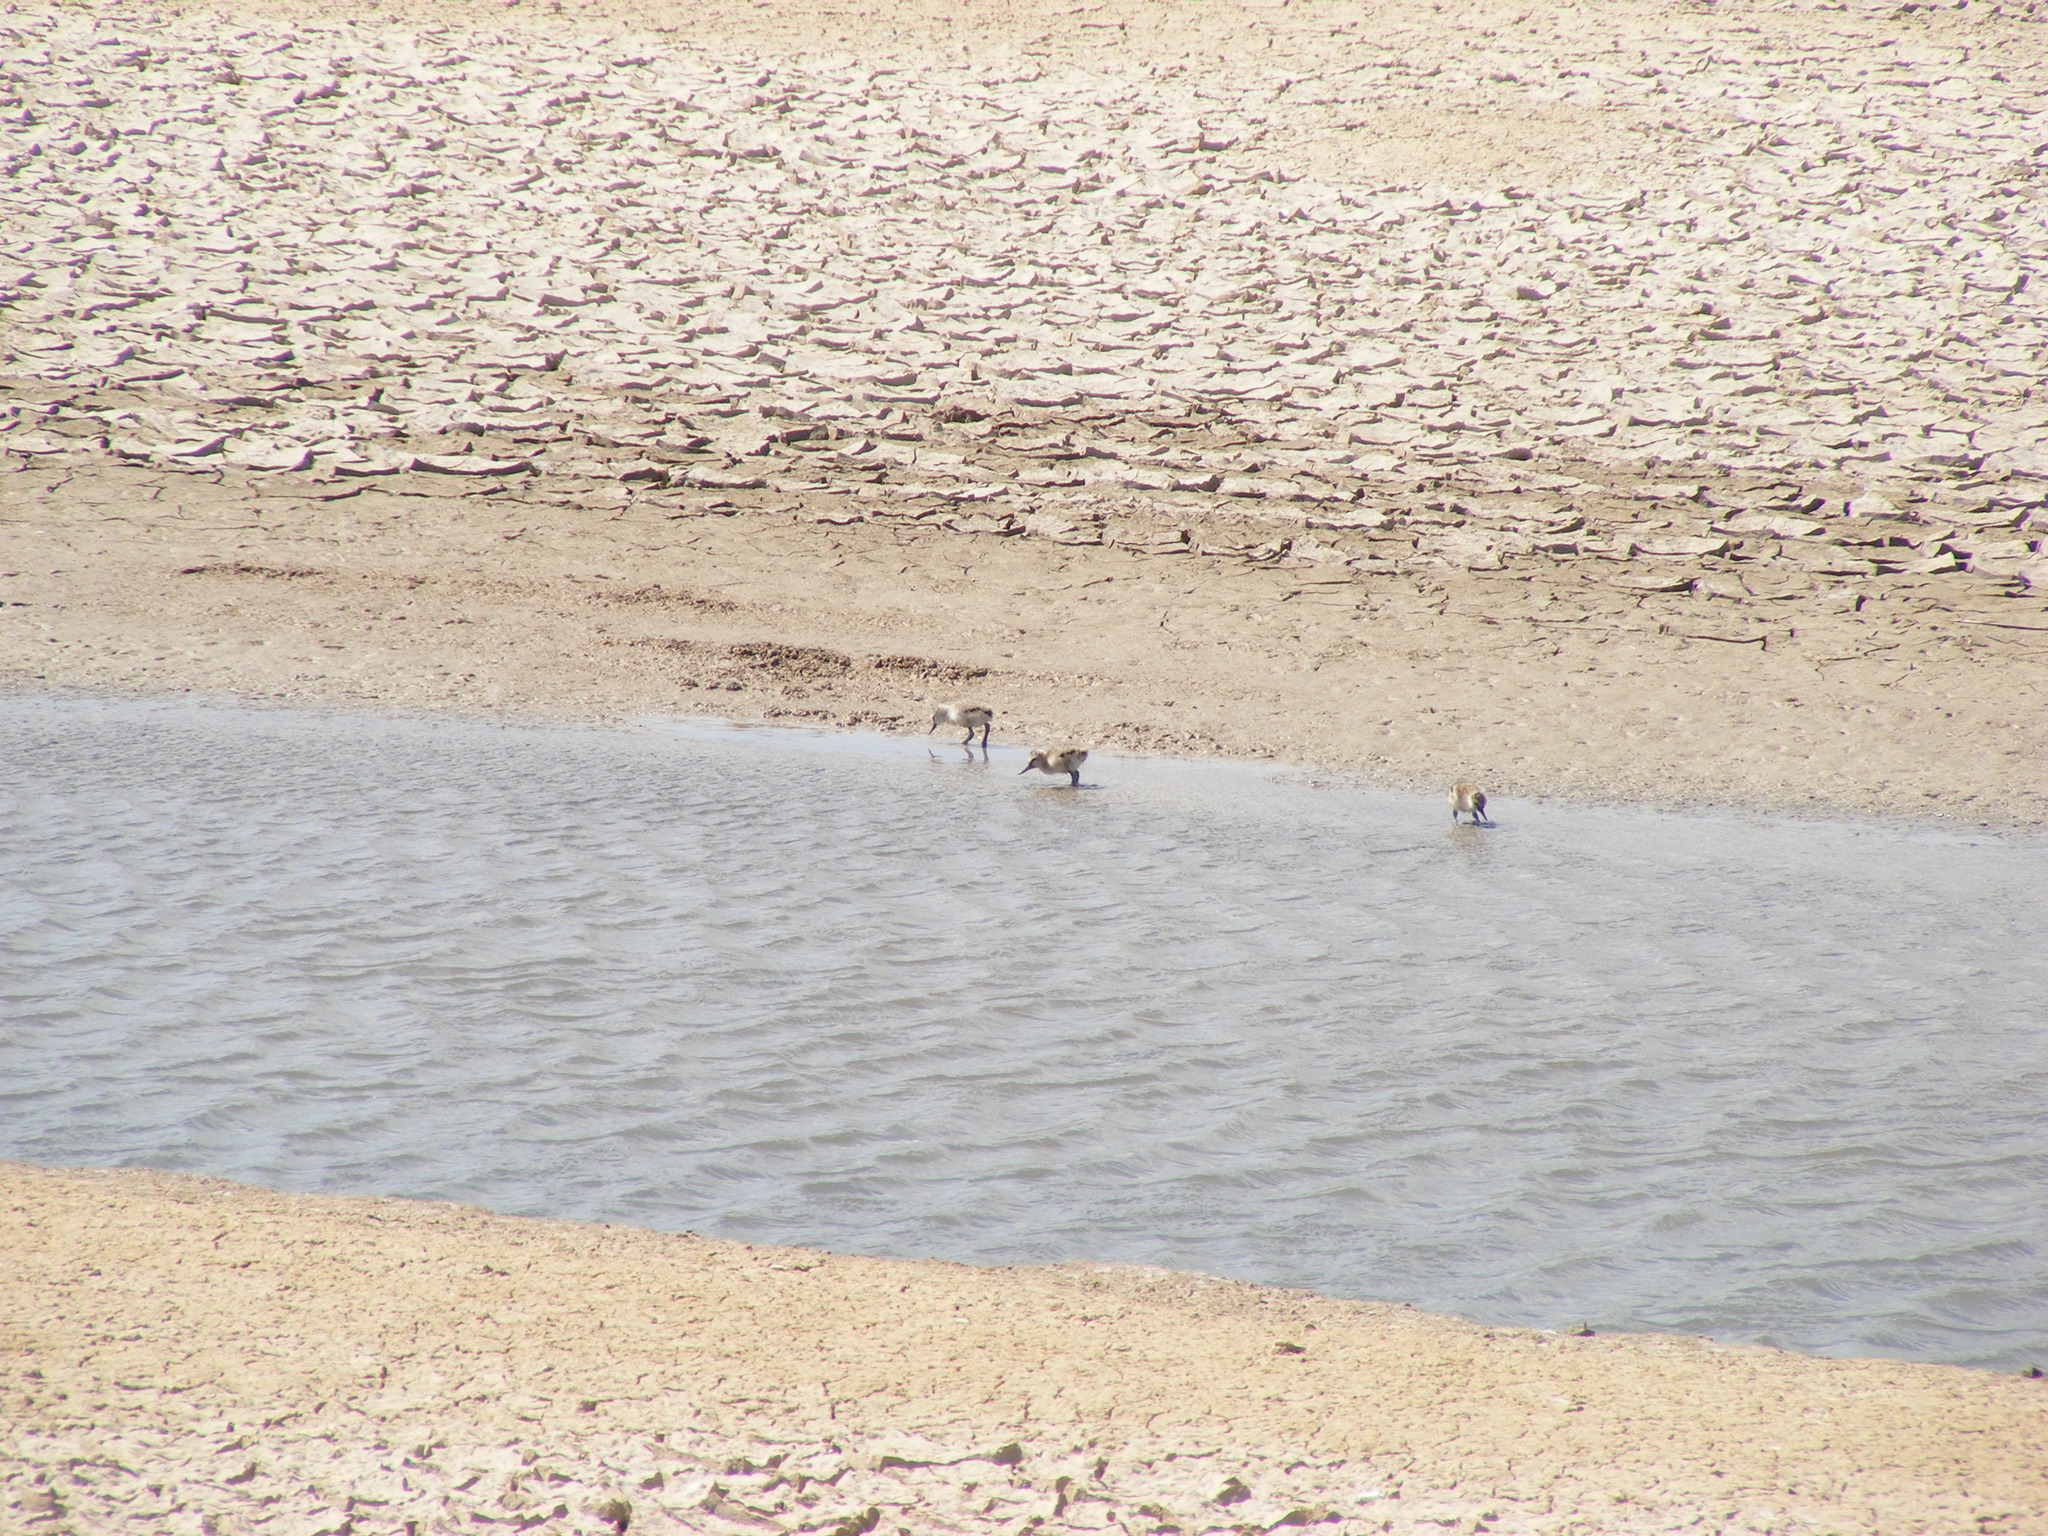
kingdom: Animalia
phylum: Chordata
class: Aves
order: Charadriiformes
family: Recurvirostridae
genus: Recurvirostra
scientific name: Recurvirostra avosetta
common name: Pied avocet
